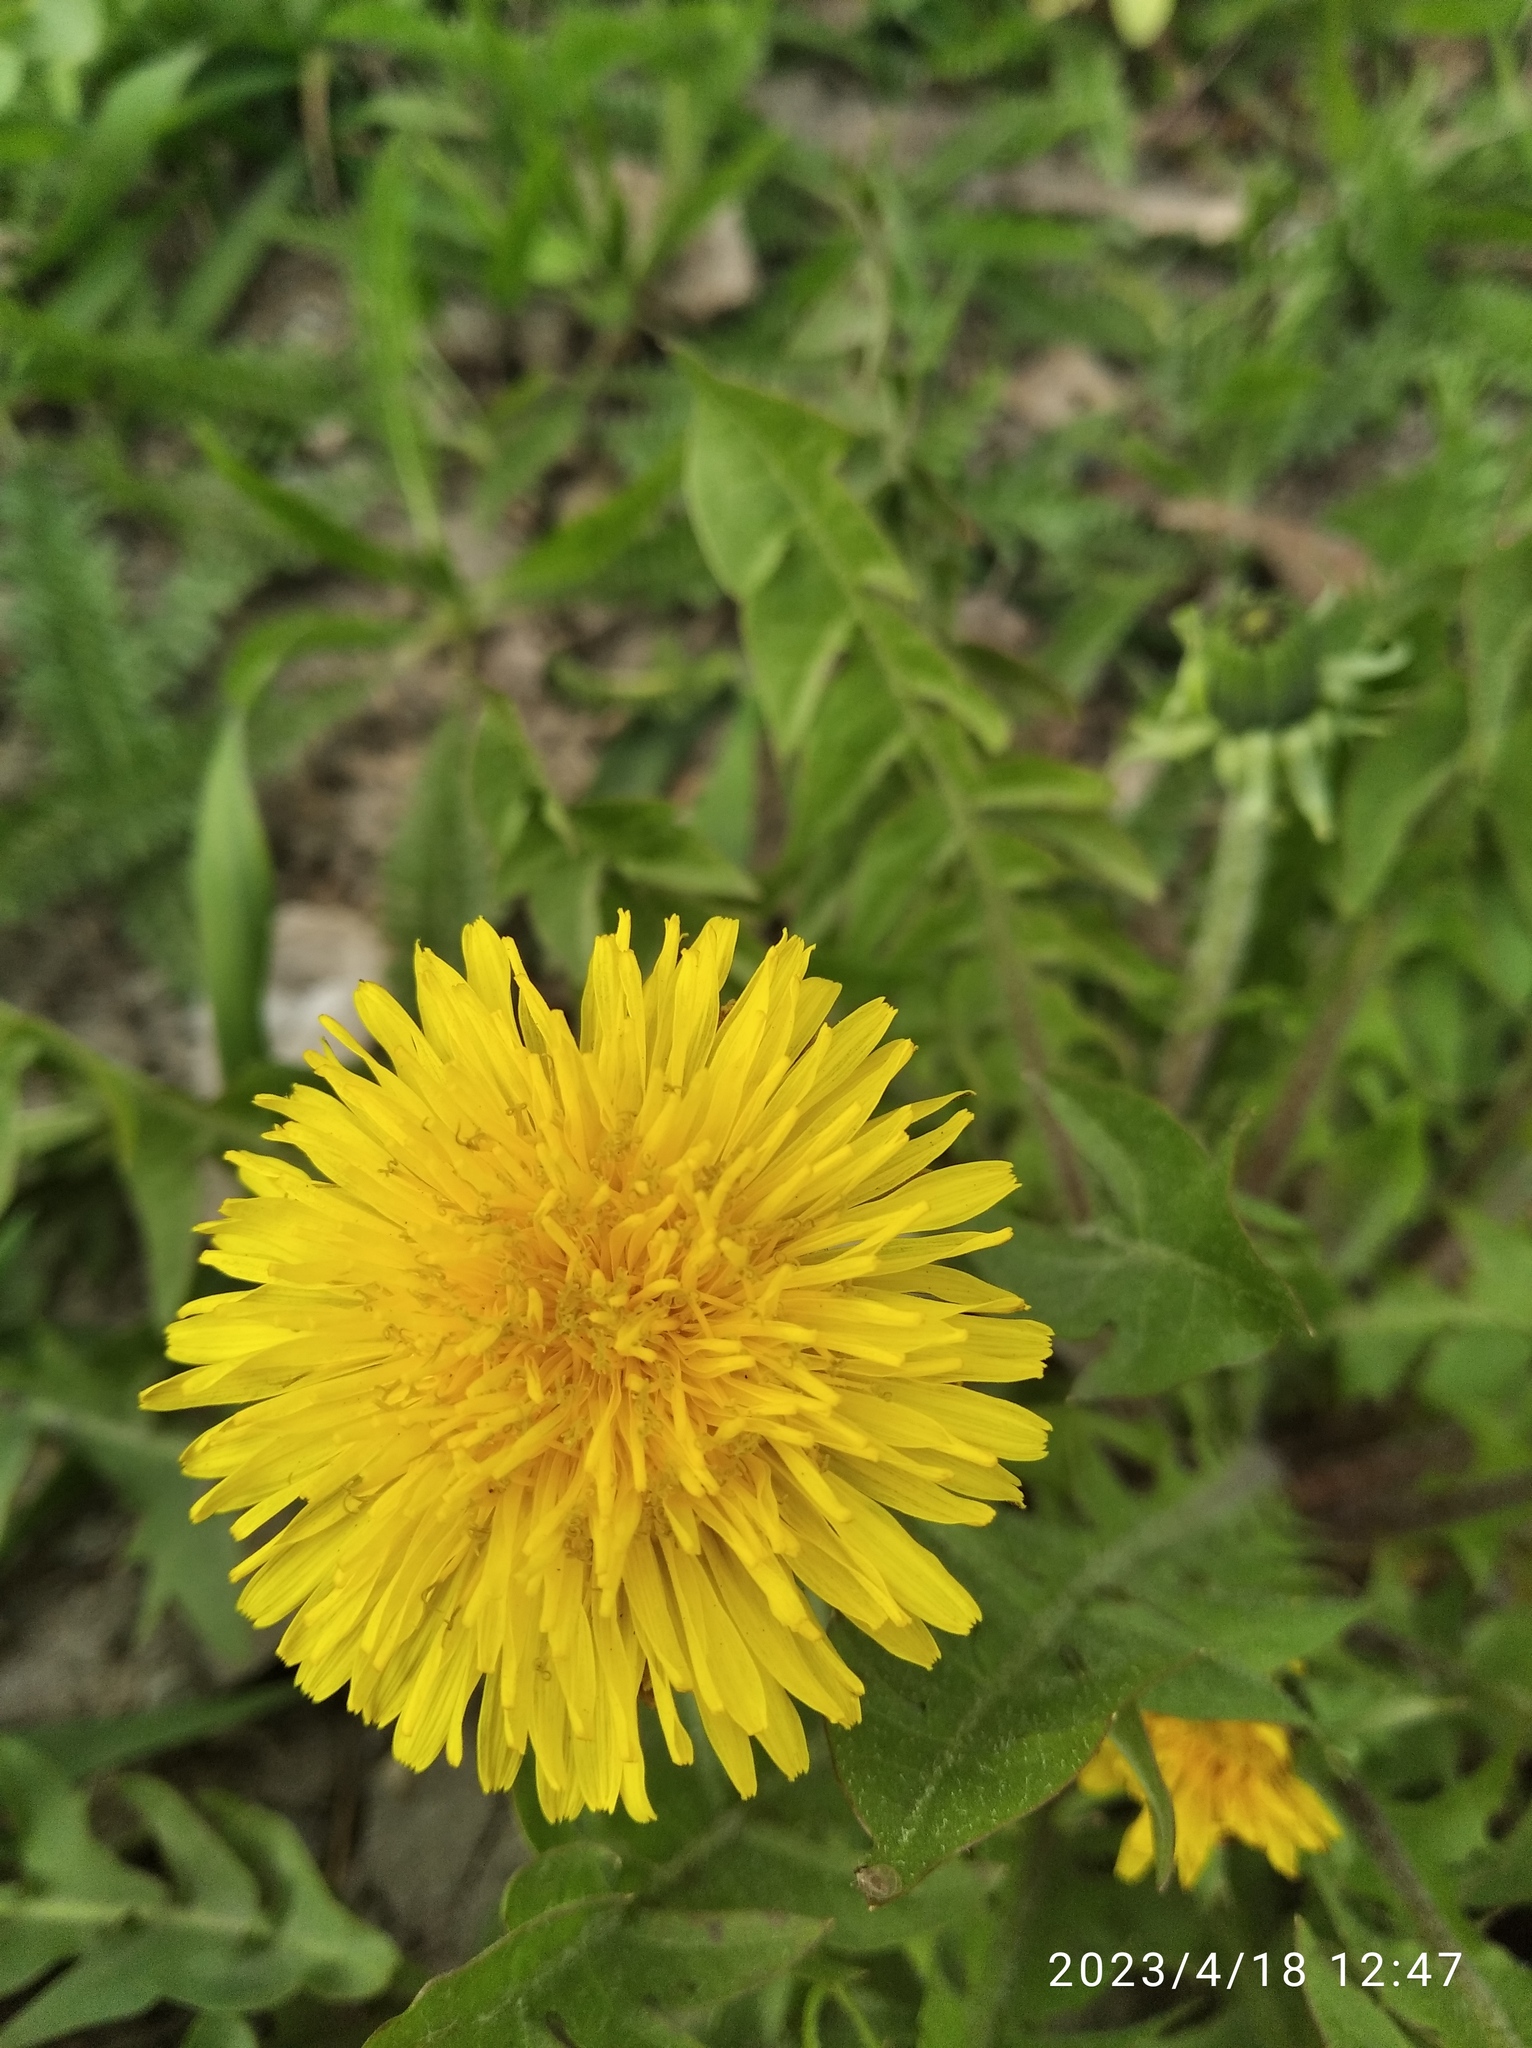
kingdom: Plantae
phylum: Tracheophyta
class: Magnoliopsida
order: Asterales
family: Asteraceae
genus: Taraxacum
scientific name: Taraxacum officinale
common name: Common dandelion
